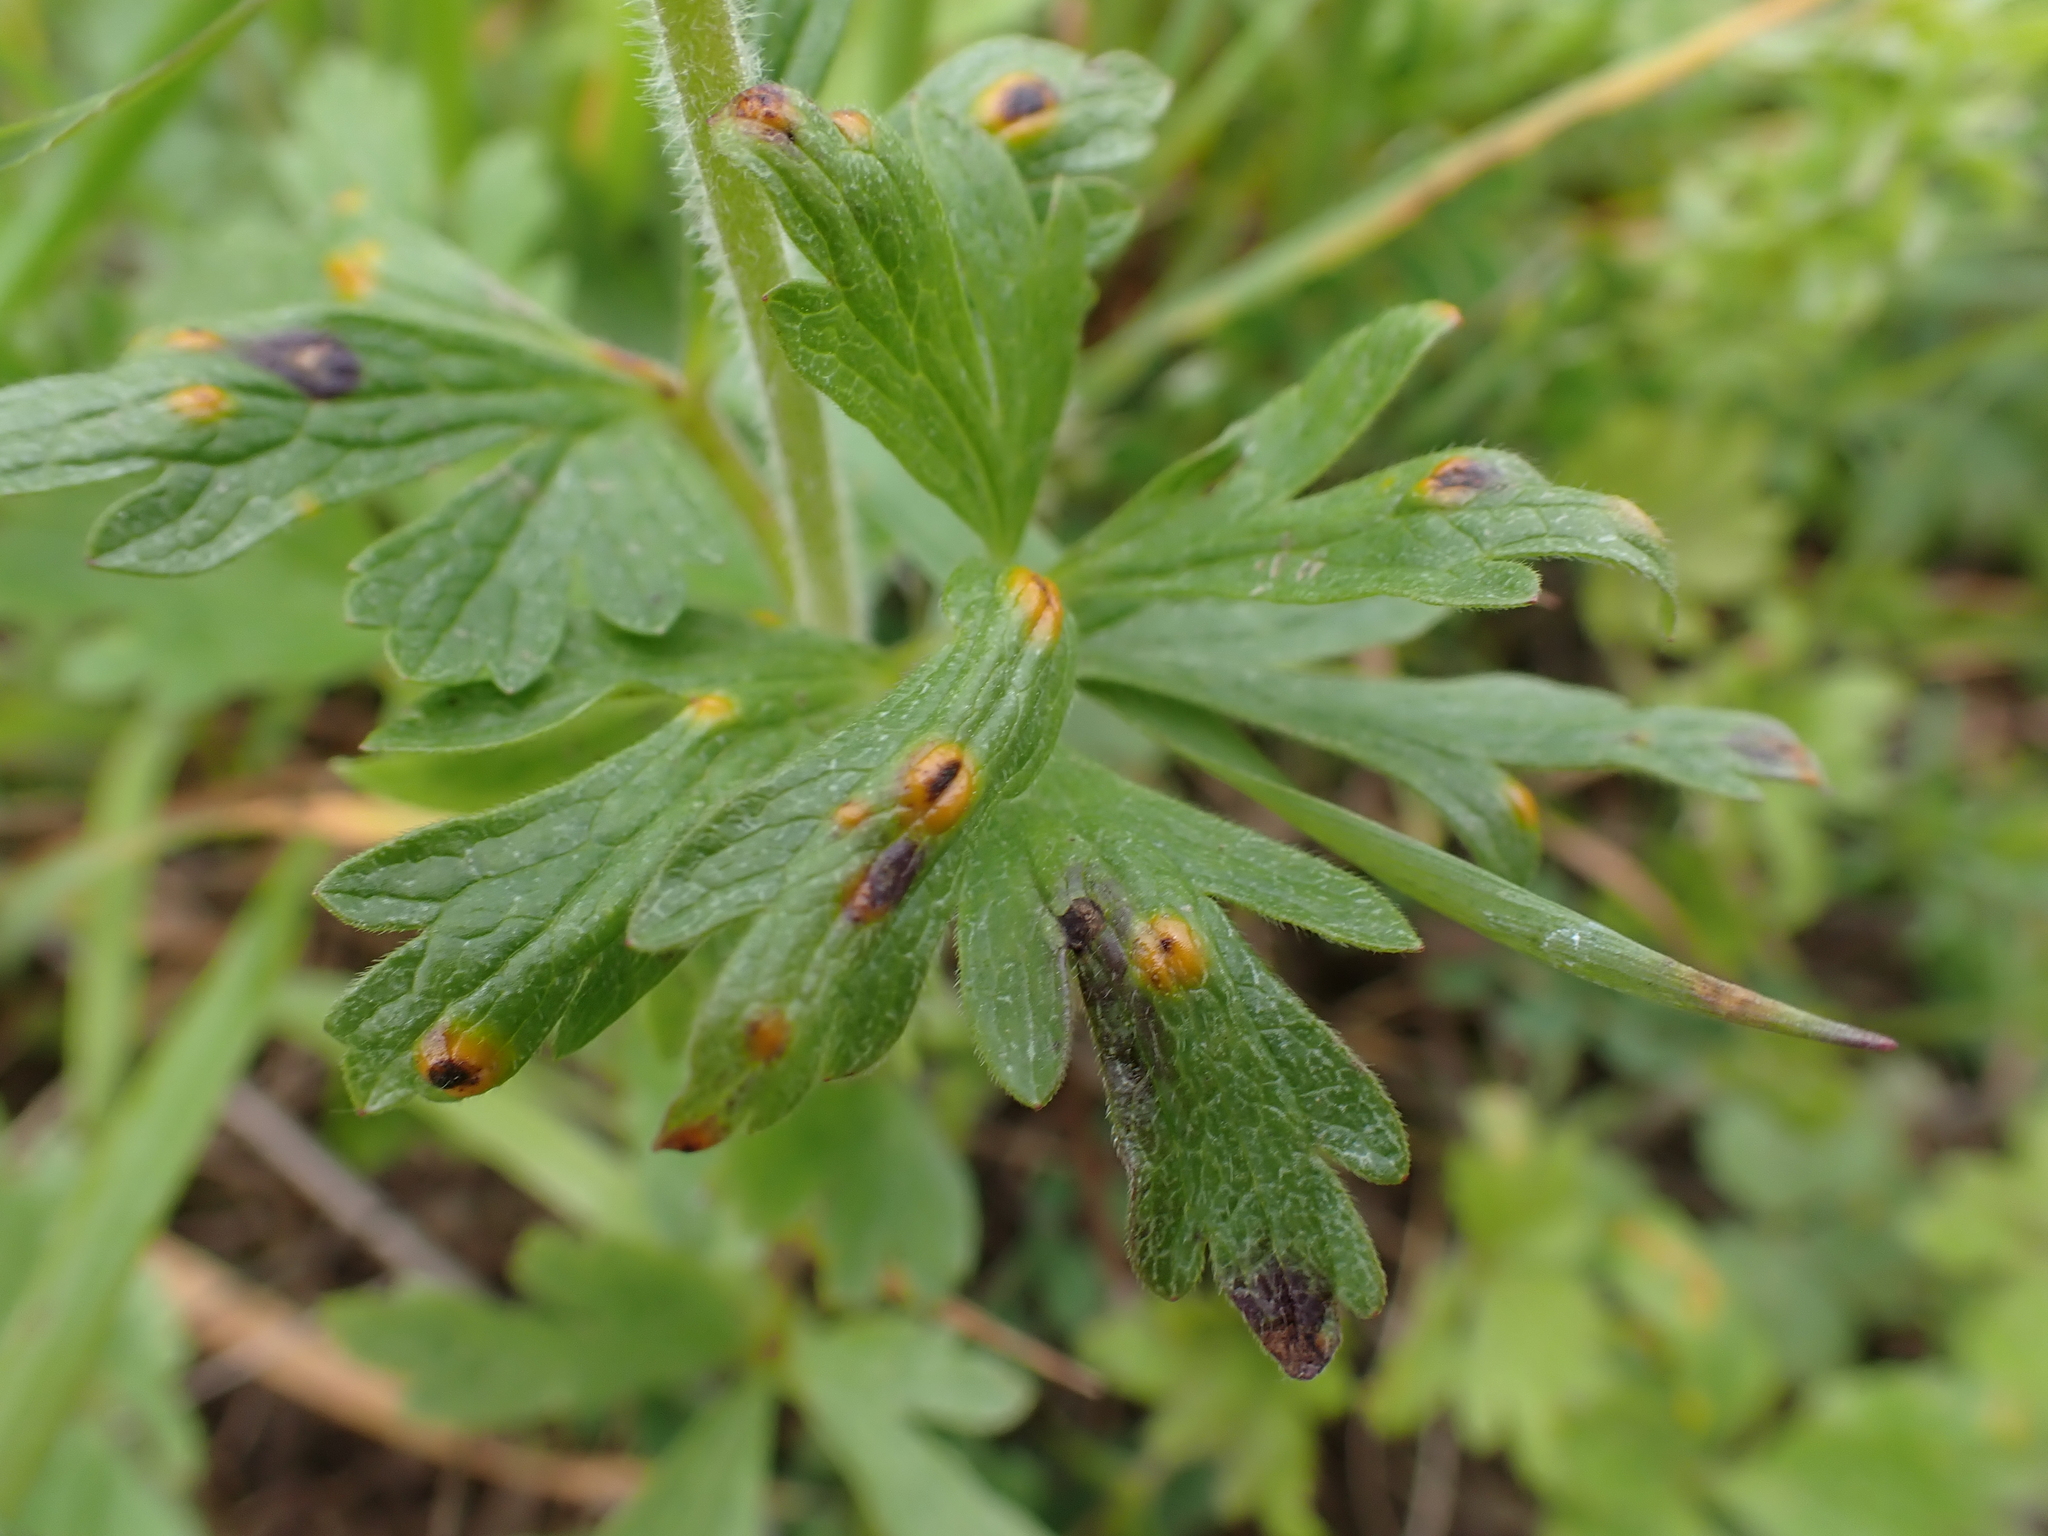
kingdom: Fungi
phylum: Basidiomycota
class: Pucciniomycetes
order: Pucciniales
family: Pucciniaceae
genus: Puccinia
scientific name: Puccinia ustalis
